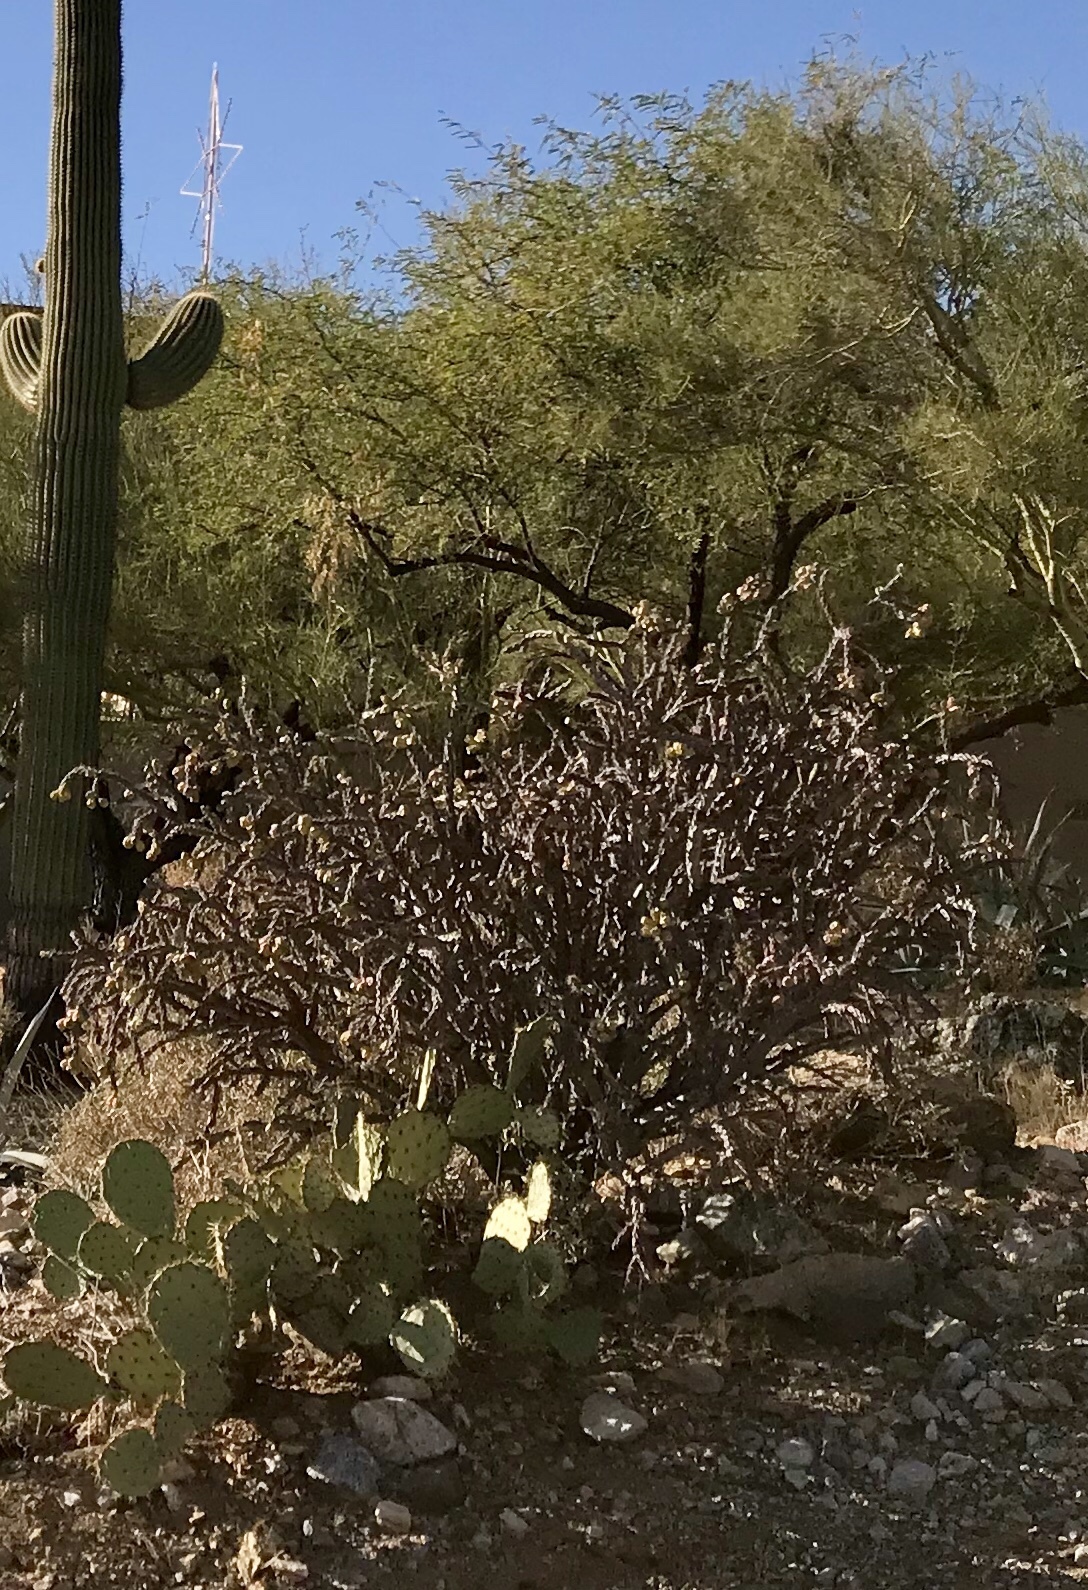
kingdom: Plantae
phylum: Tracheophyta
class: Magnoliopsida
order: Caryophyllales
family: Cactaceae
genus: Cylindropuntia
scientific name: Cylindropuntia thurberi
